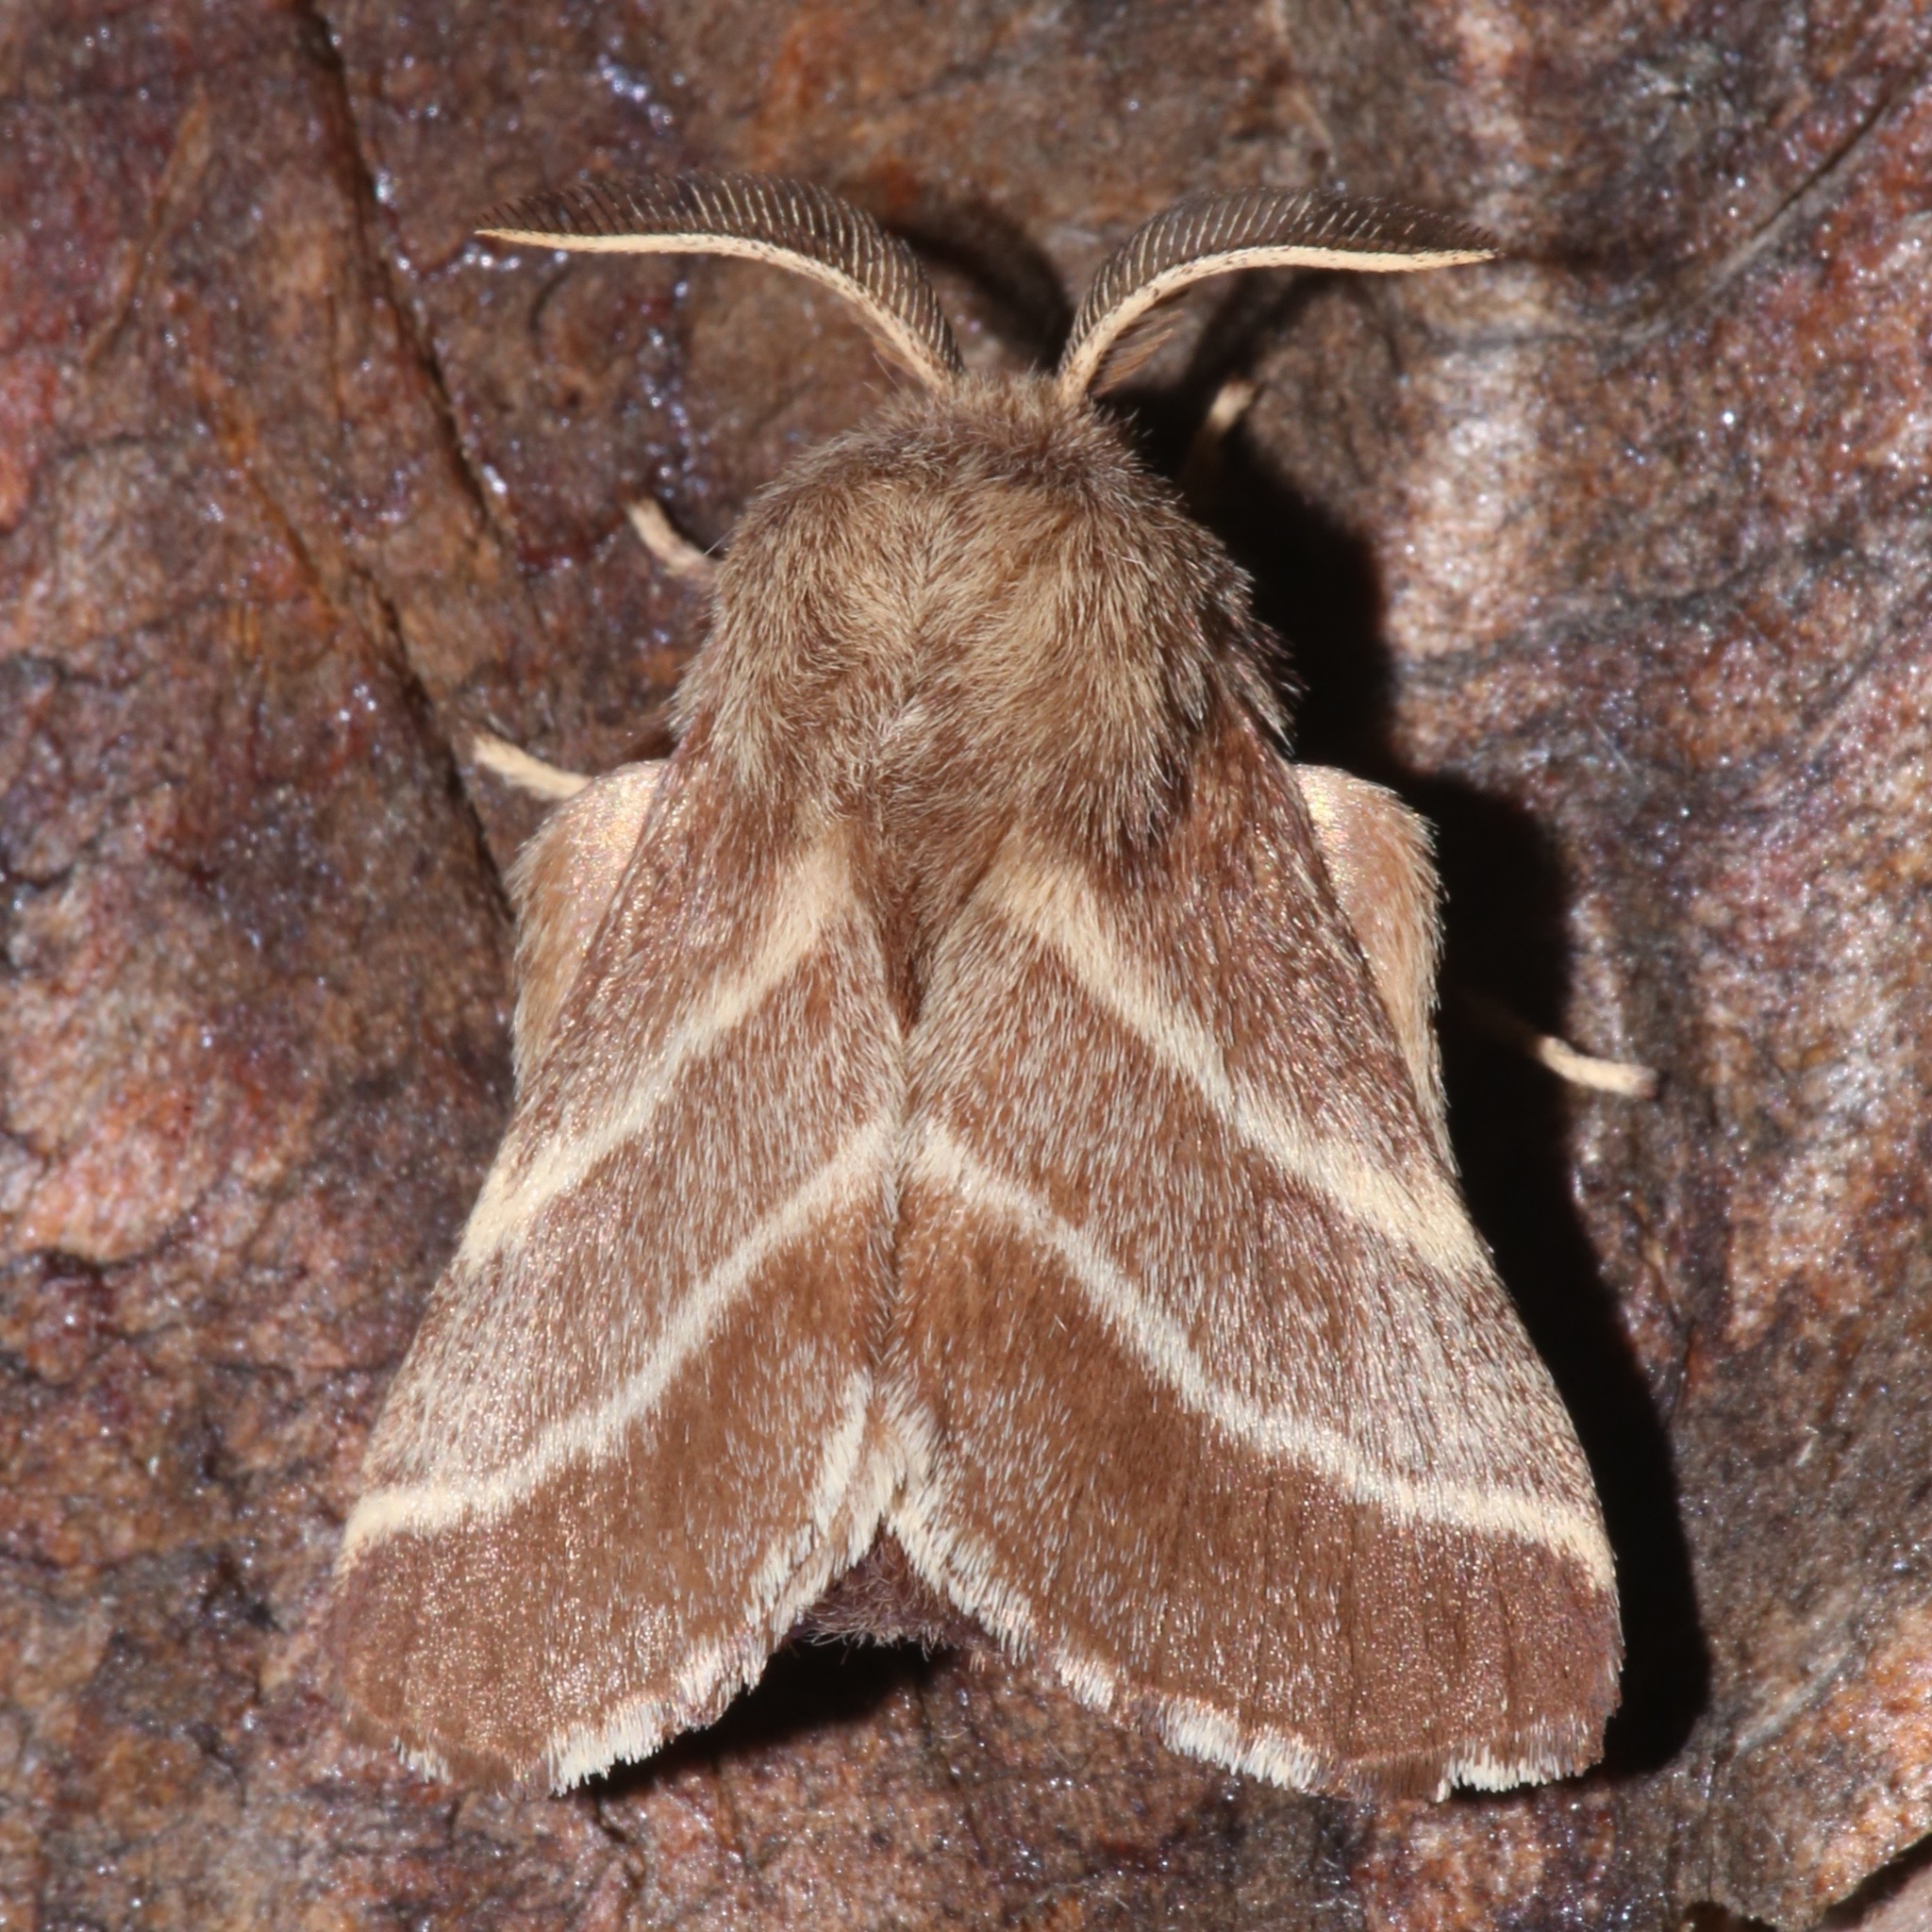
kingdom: Animalia
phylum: Arthropoda
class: Insecta
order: Lepidoptera
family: Lasiocampidae
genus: Malacosoma
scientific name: Malacosoma americana
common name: Eastern tent caterpillar moth
